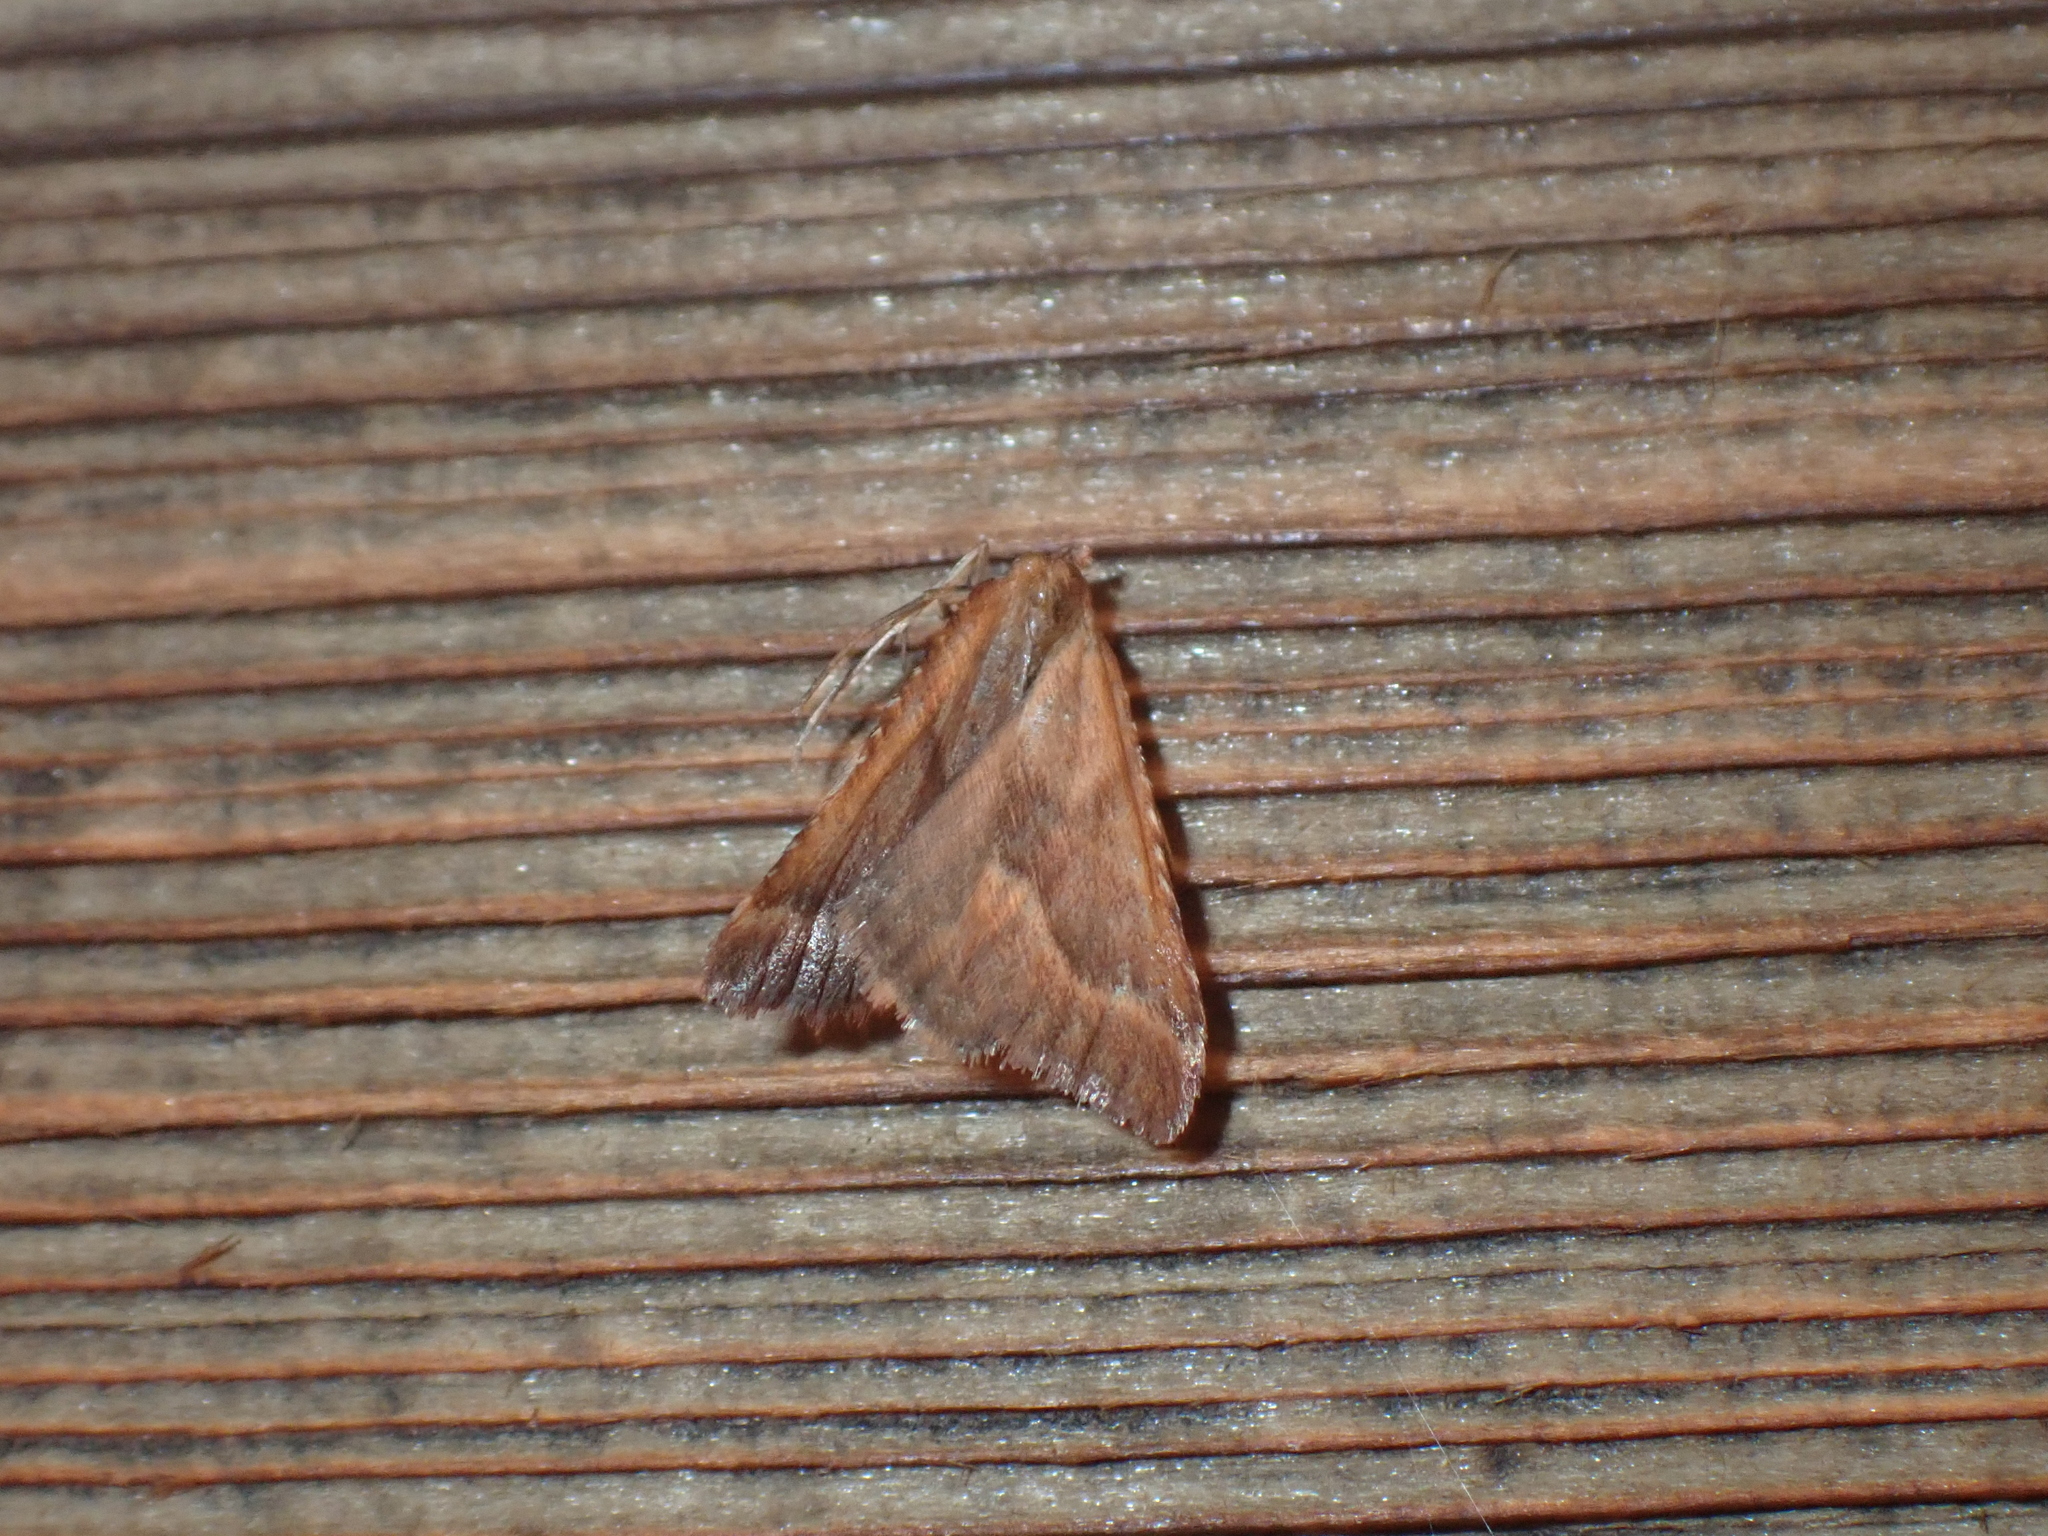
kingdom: Animalia
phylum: Arthropoda
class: Insecta
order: Lepidoptera
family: Pyralidae
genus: Synaphe
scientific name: Synaphe punctalis
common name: Long-legged tabby
